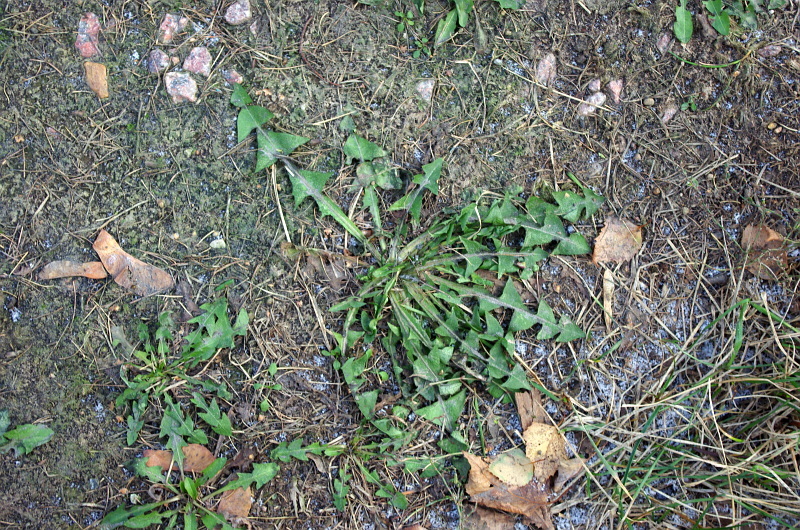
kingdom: Plantae
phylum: Tracheophyta
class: Magnoliopsida
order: Asterales
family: Asteraceae
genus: Taraxacum
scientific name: Taraxacum officinale
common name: Common dandelion
